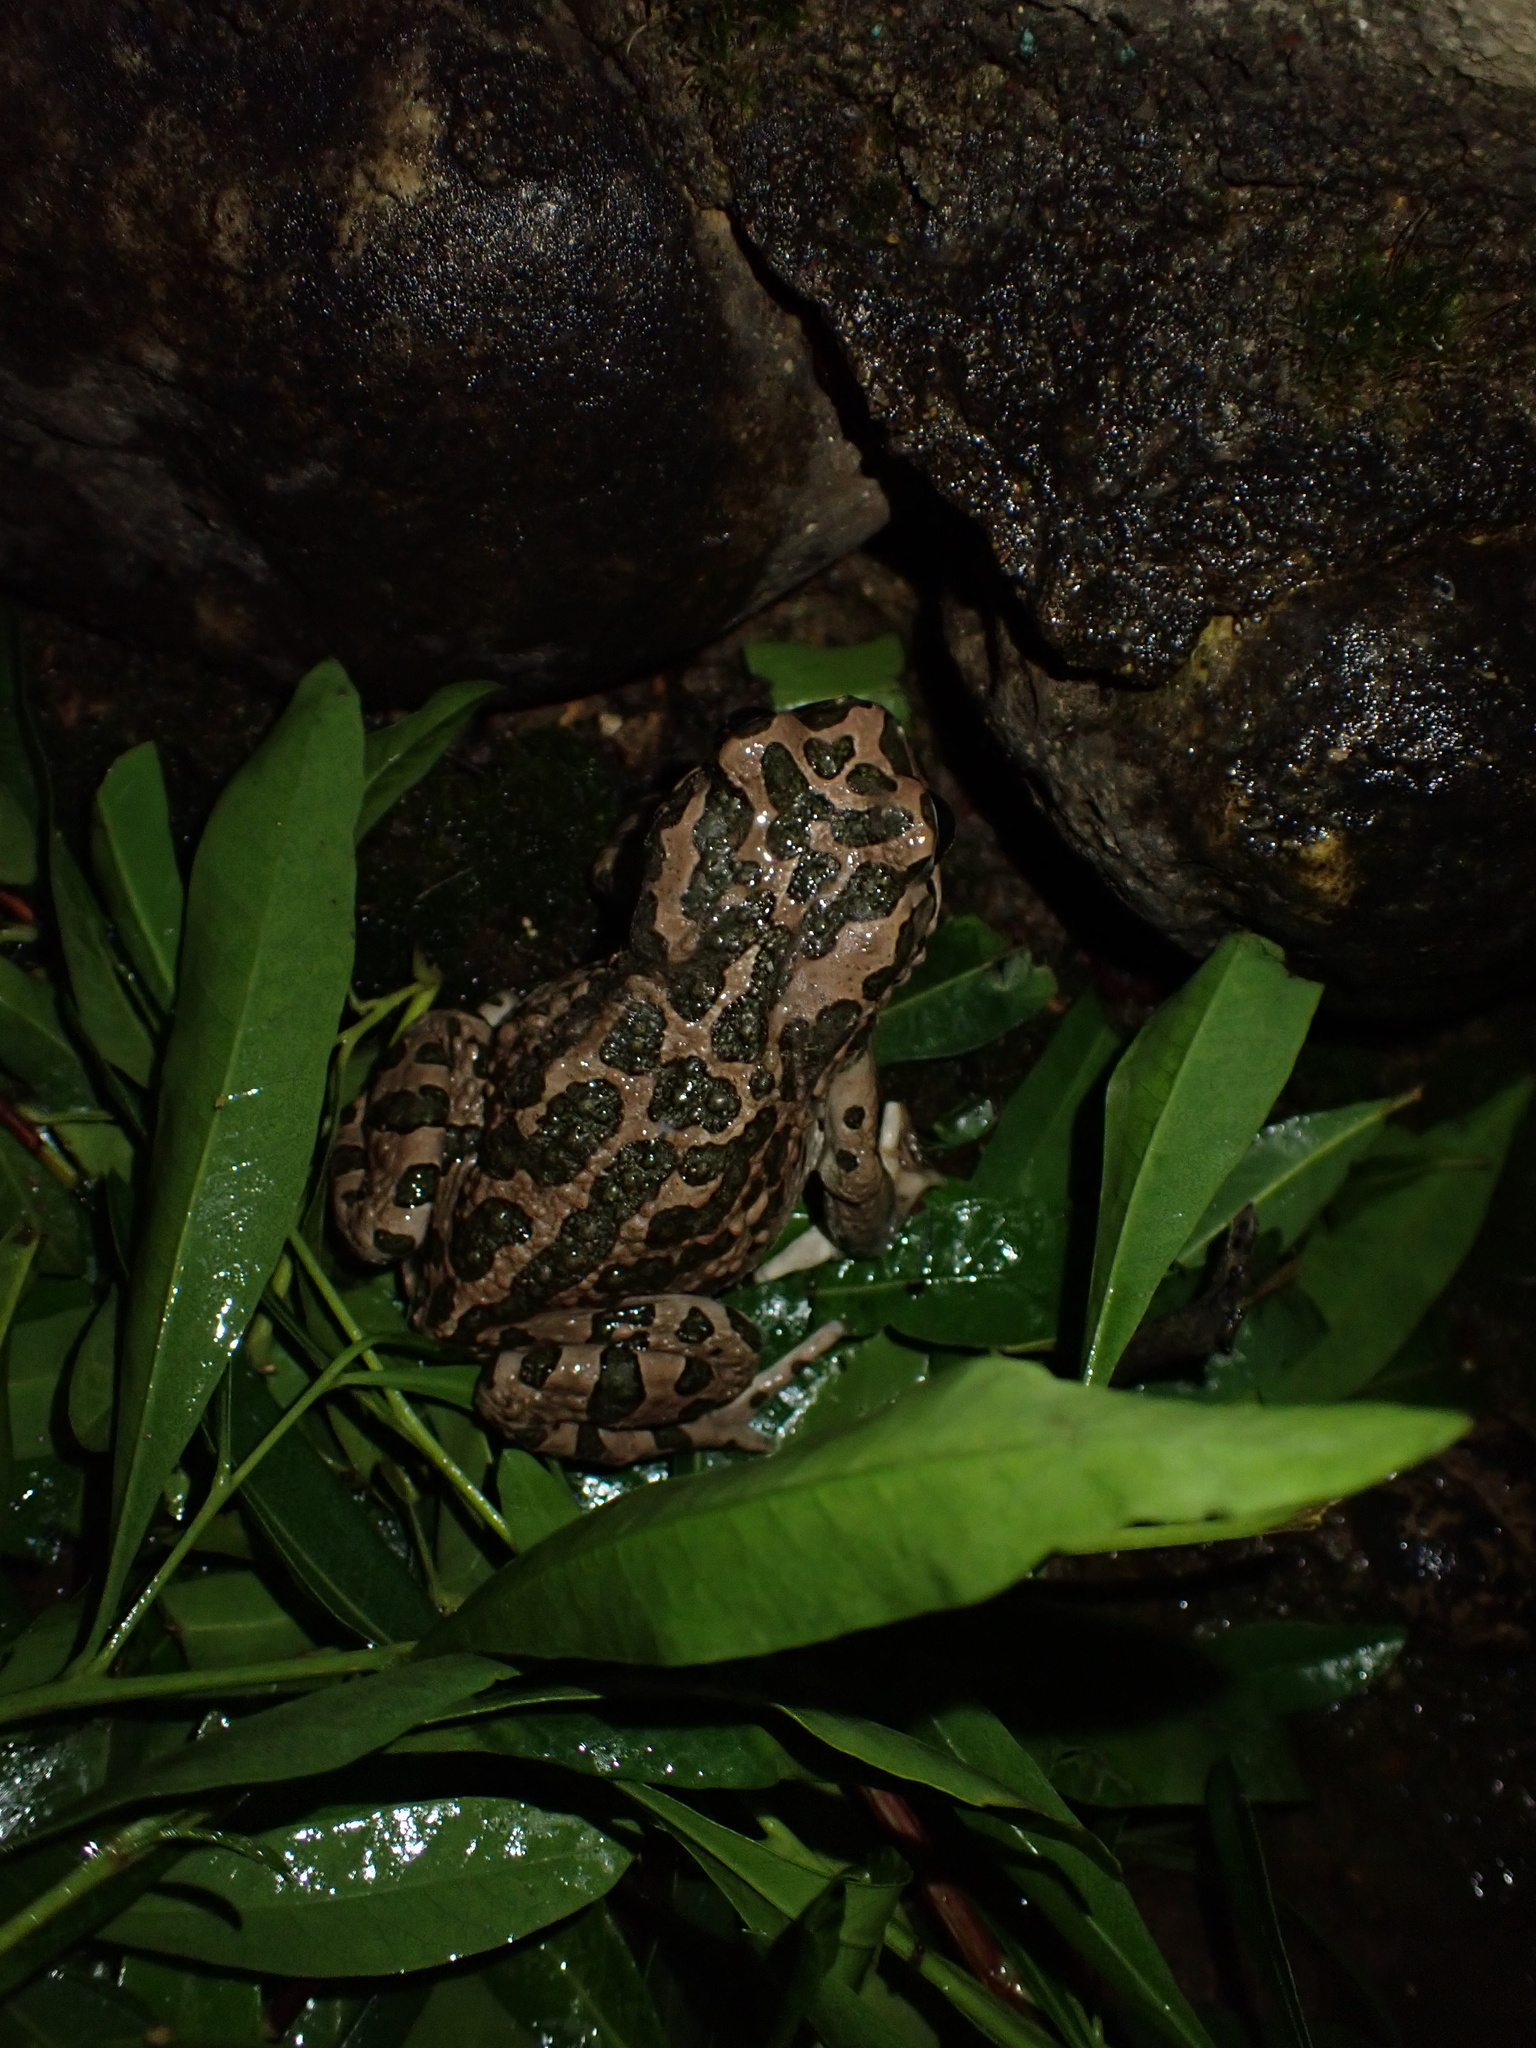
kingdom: Animalia
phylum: Chordata
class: Amphibia
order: Anura
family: Bufonidae
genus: Bufotes
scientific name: Bufotes viridis
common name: European green toad
